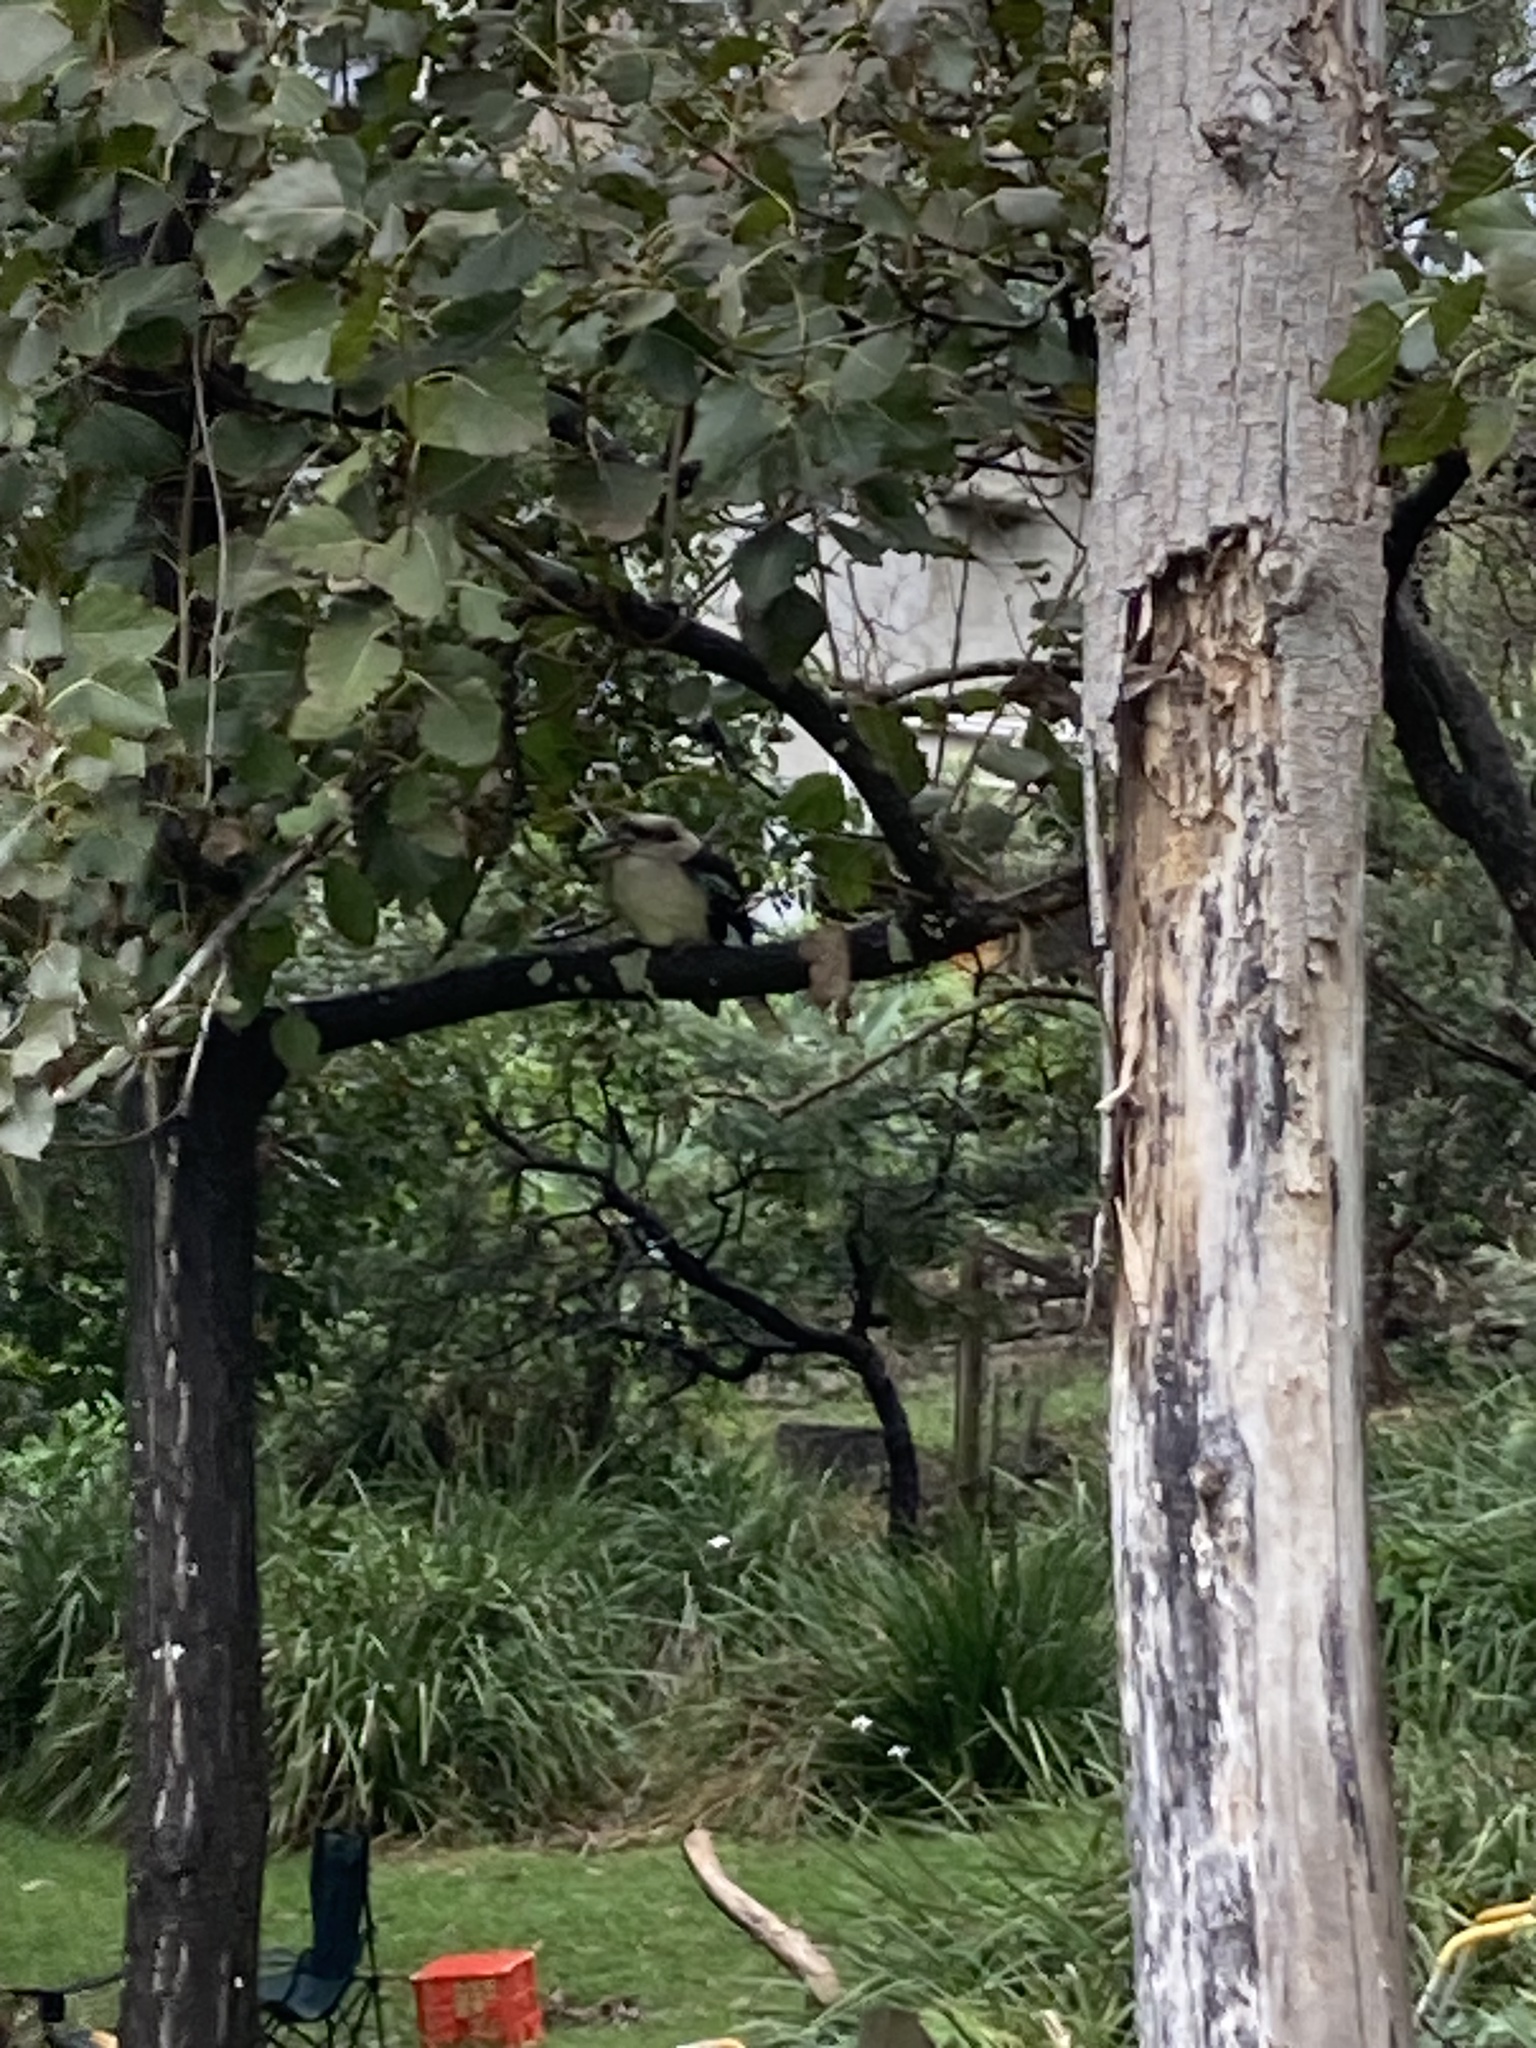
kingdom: Animalia
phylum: Chordata
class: Aves
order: Coraciiformes
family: Alcedinidae
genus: Dacelo
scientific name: Dacelo novaeguineae
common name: Laughing kookaburra
